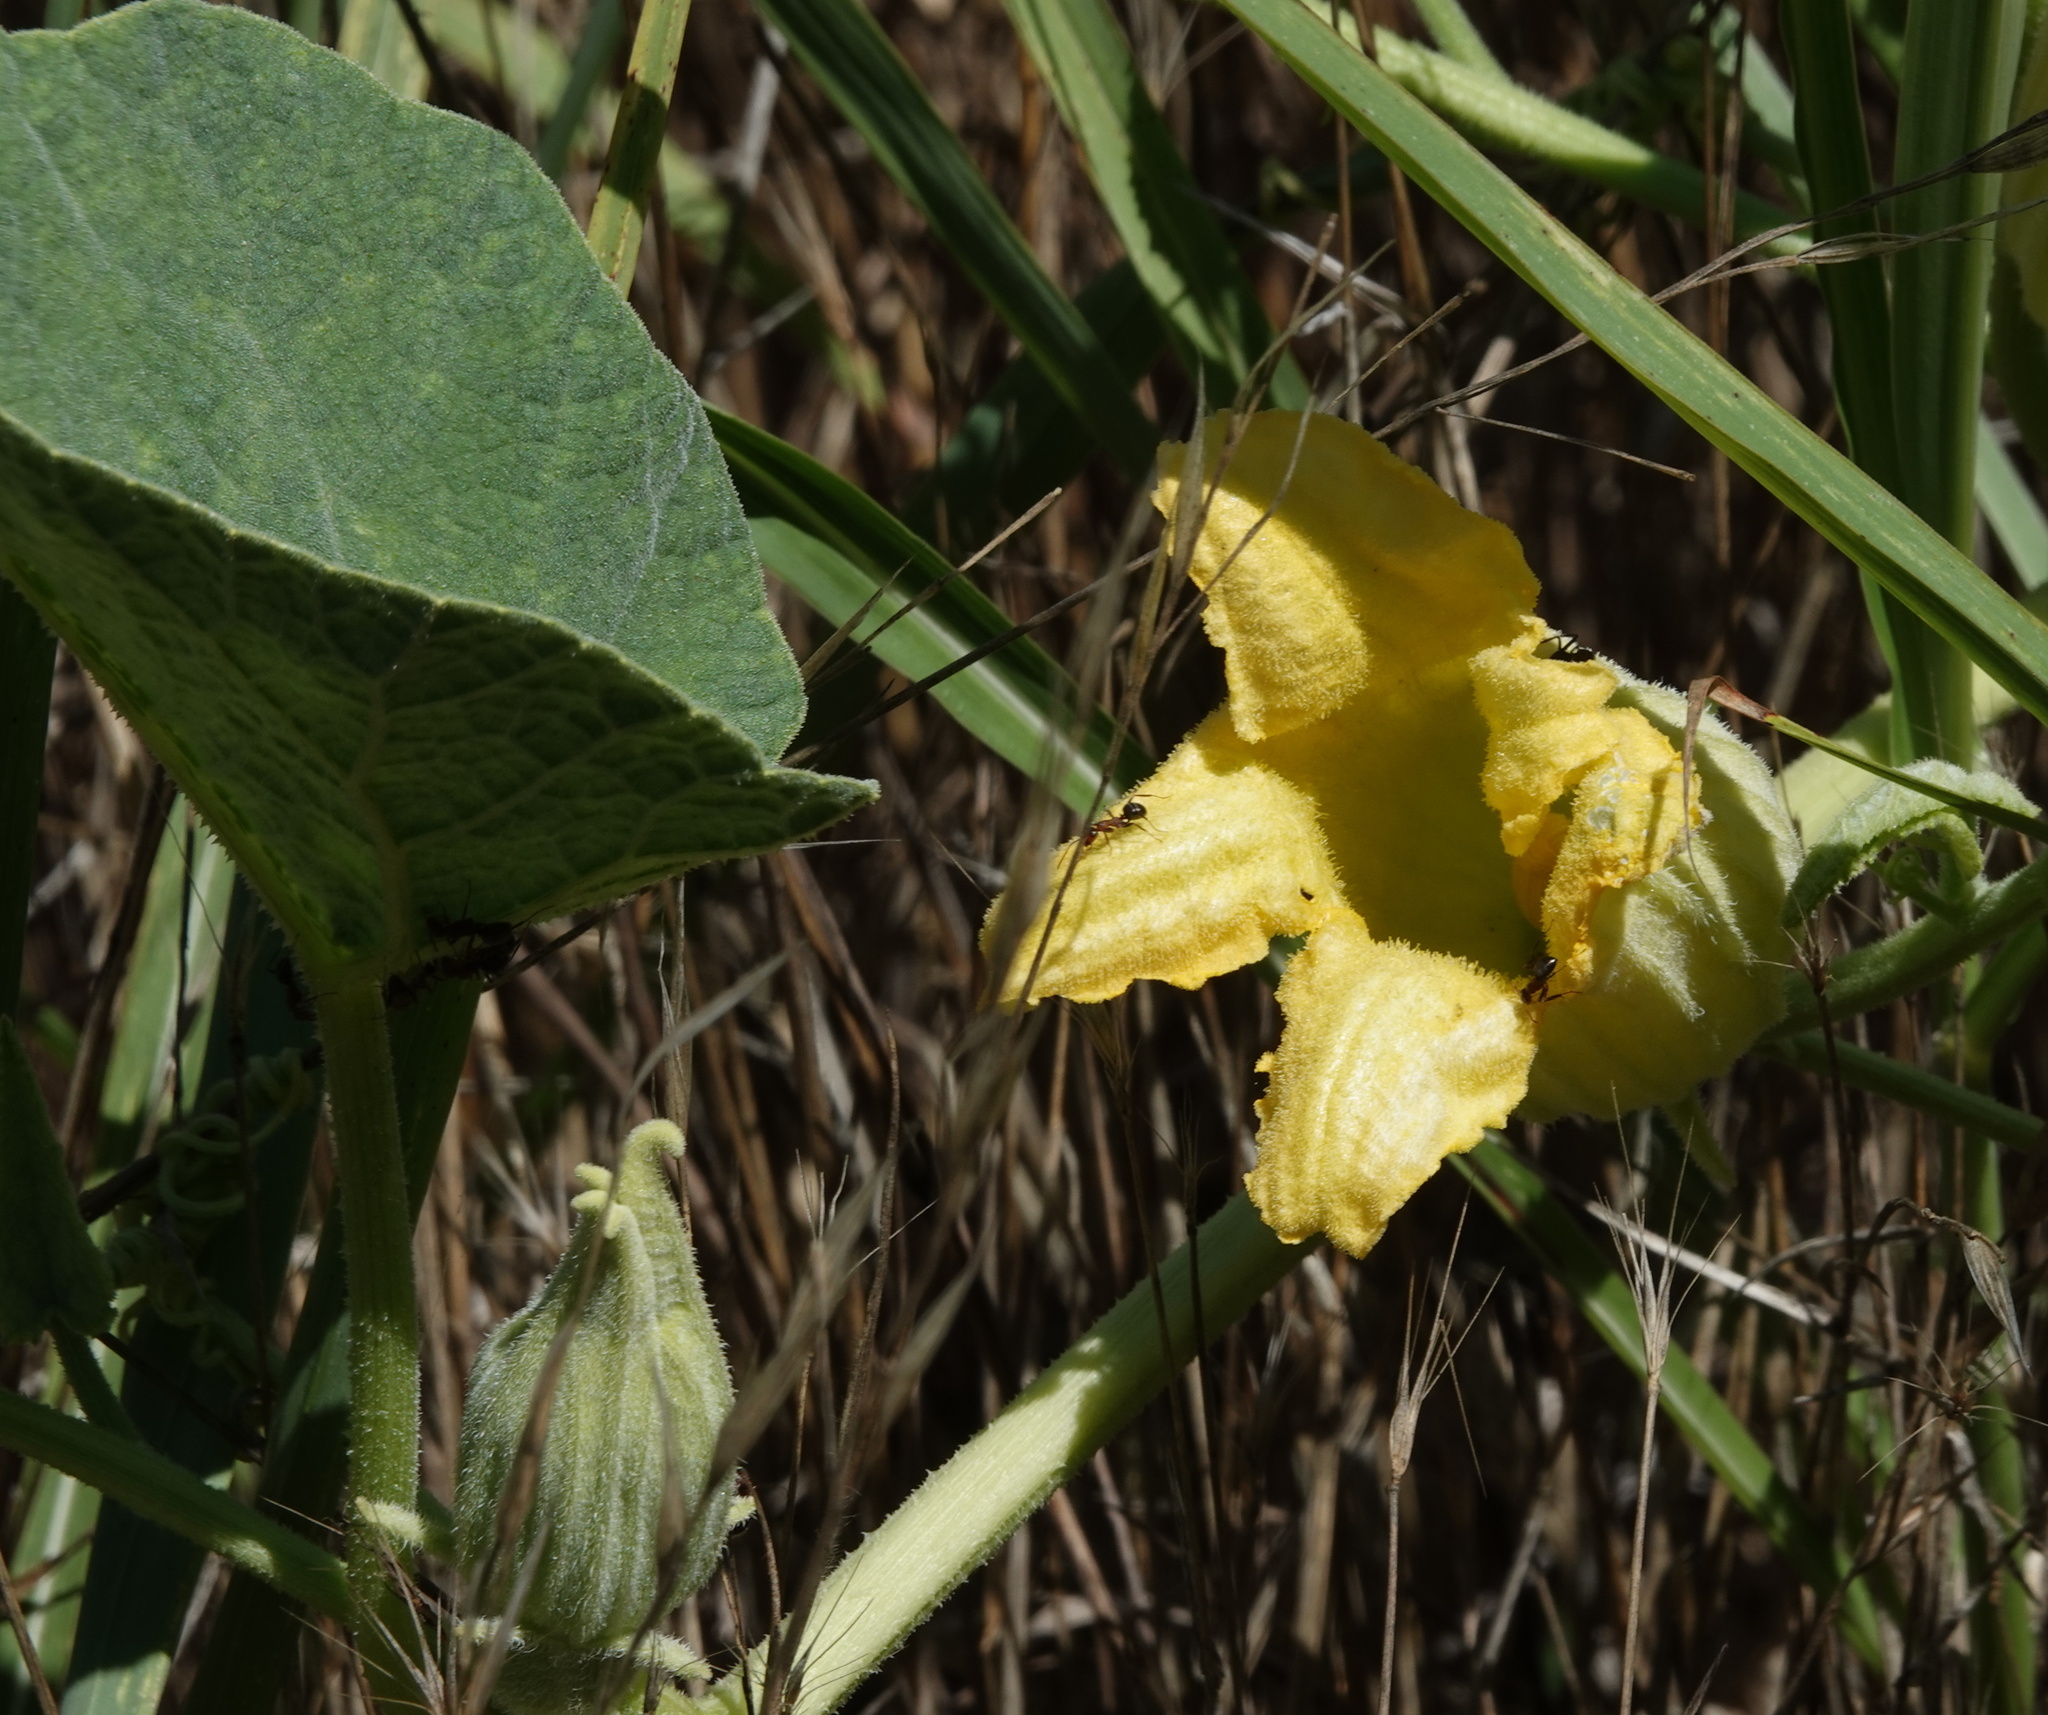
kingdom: Plantae
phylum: Tracheophyta
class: Magnoliopsida
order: Cucurbitales
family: Cucurbitaceae
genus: Cucurbita
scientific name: Cucurbita foetidissima
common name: Buffalo gourd
